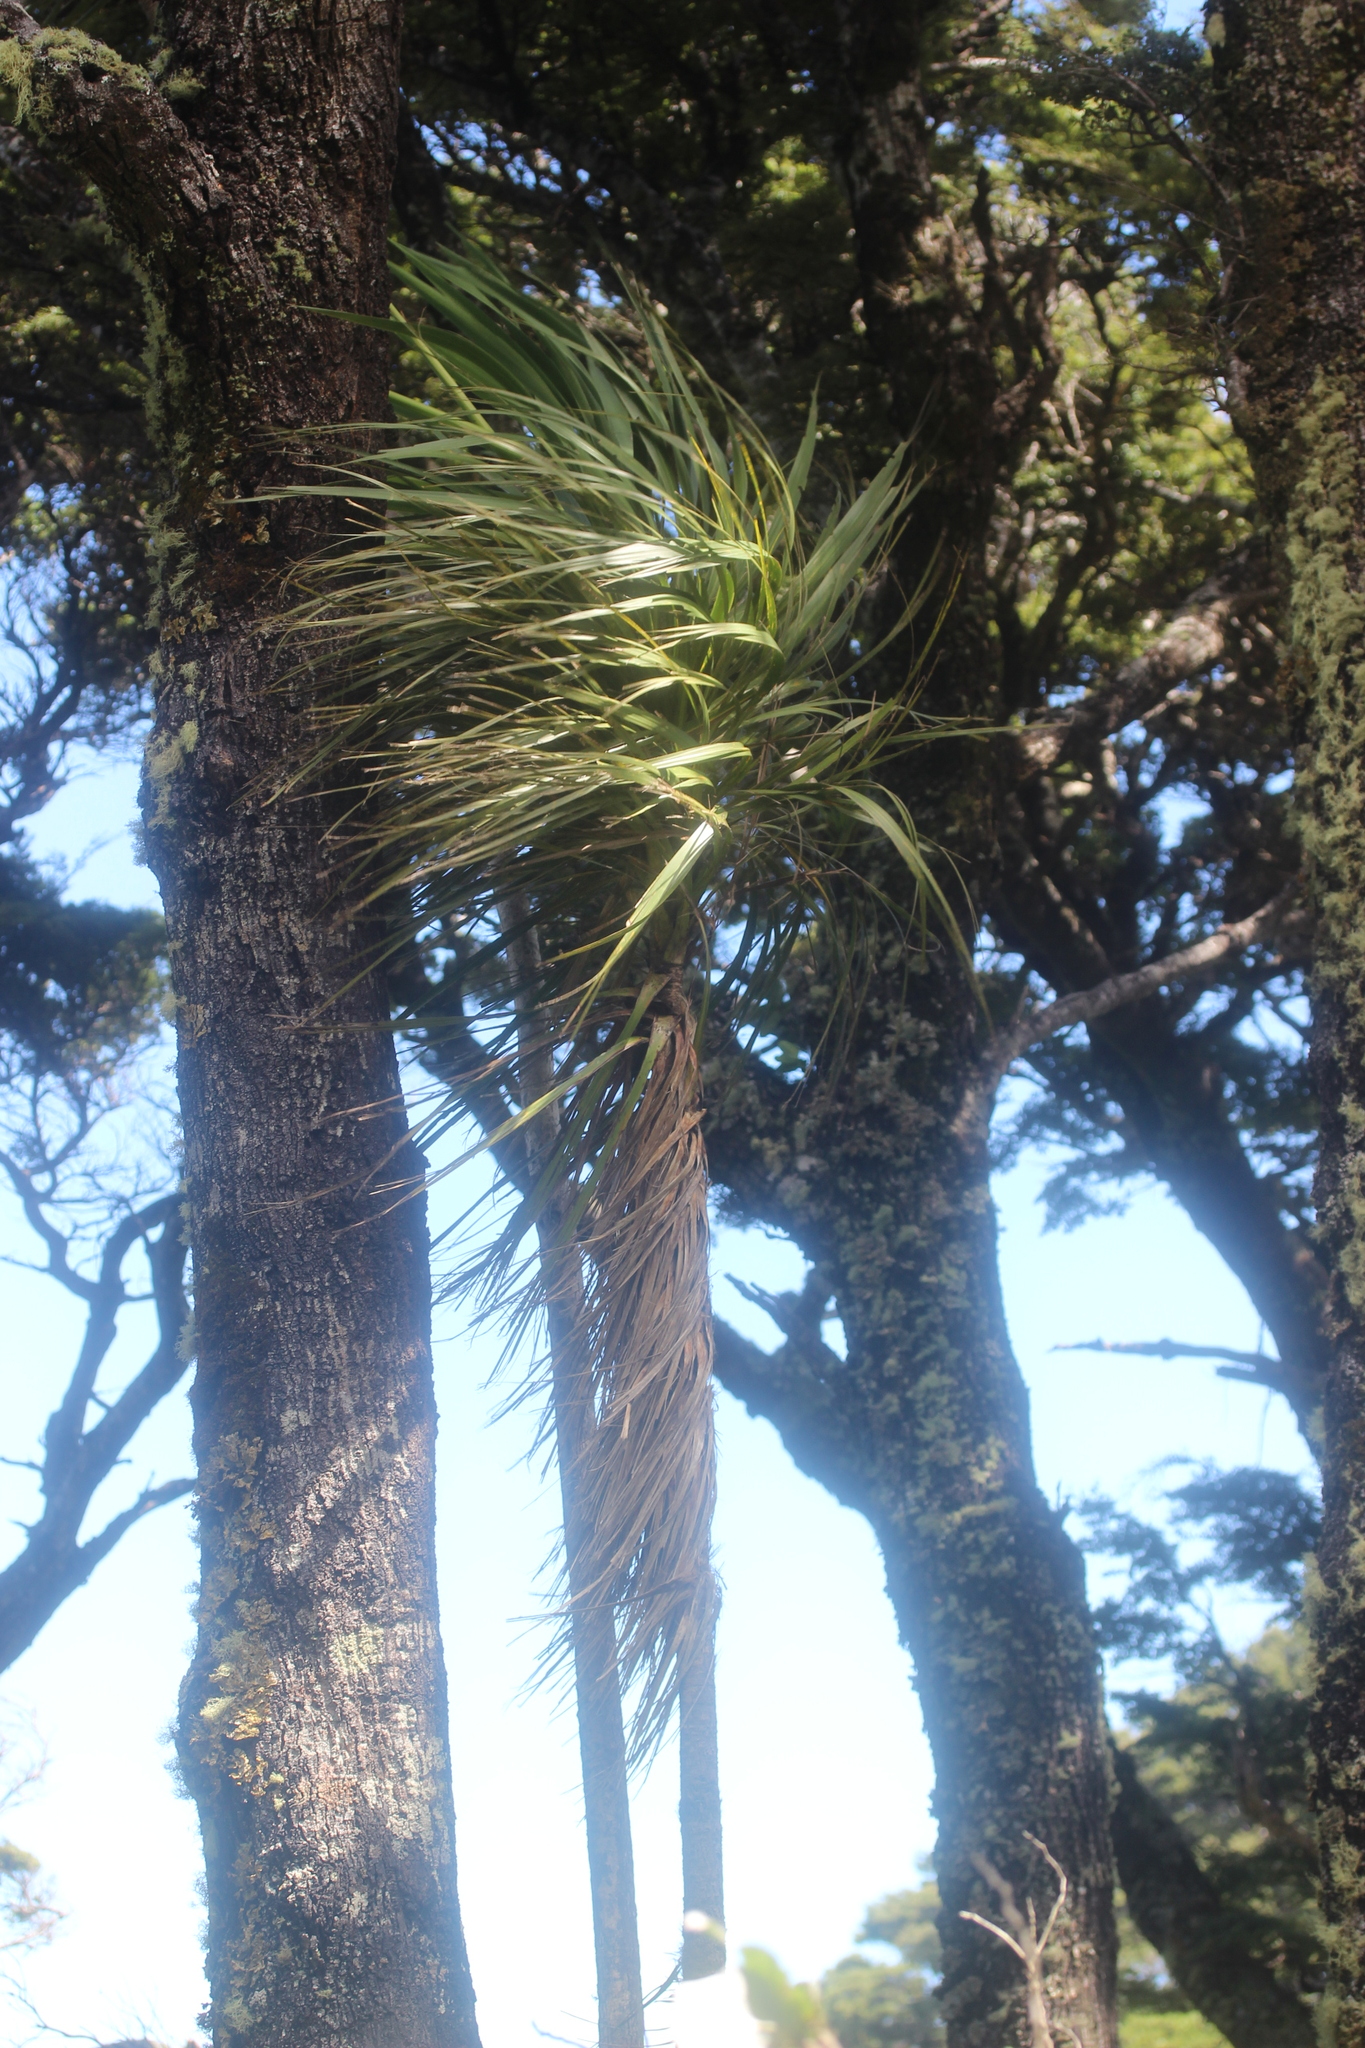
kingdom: Plantae
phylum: Tracheophyta
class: Liliopsida
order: Asparagales
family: Asparagaceae
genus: Cordyline
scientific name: Cordyline australis
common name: Cabbage-palm
